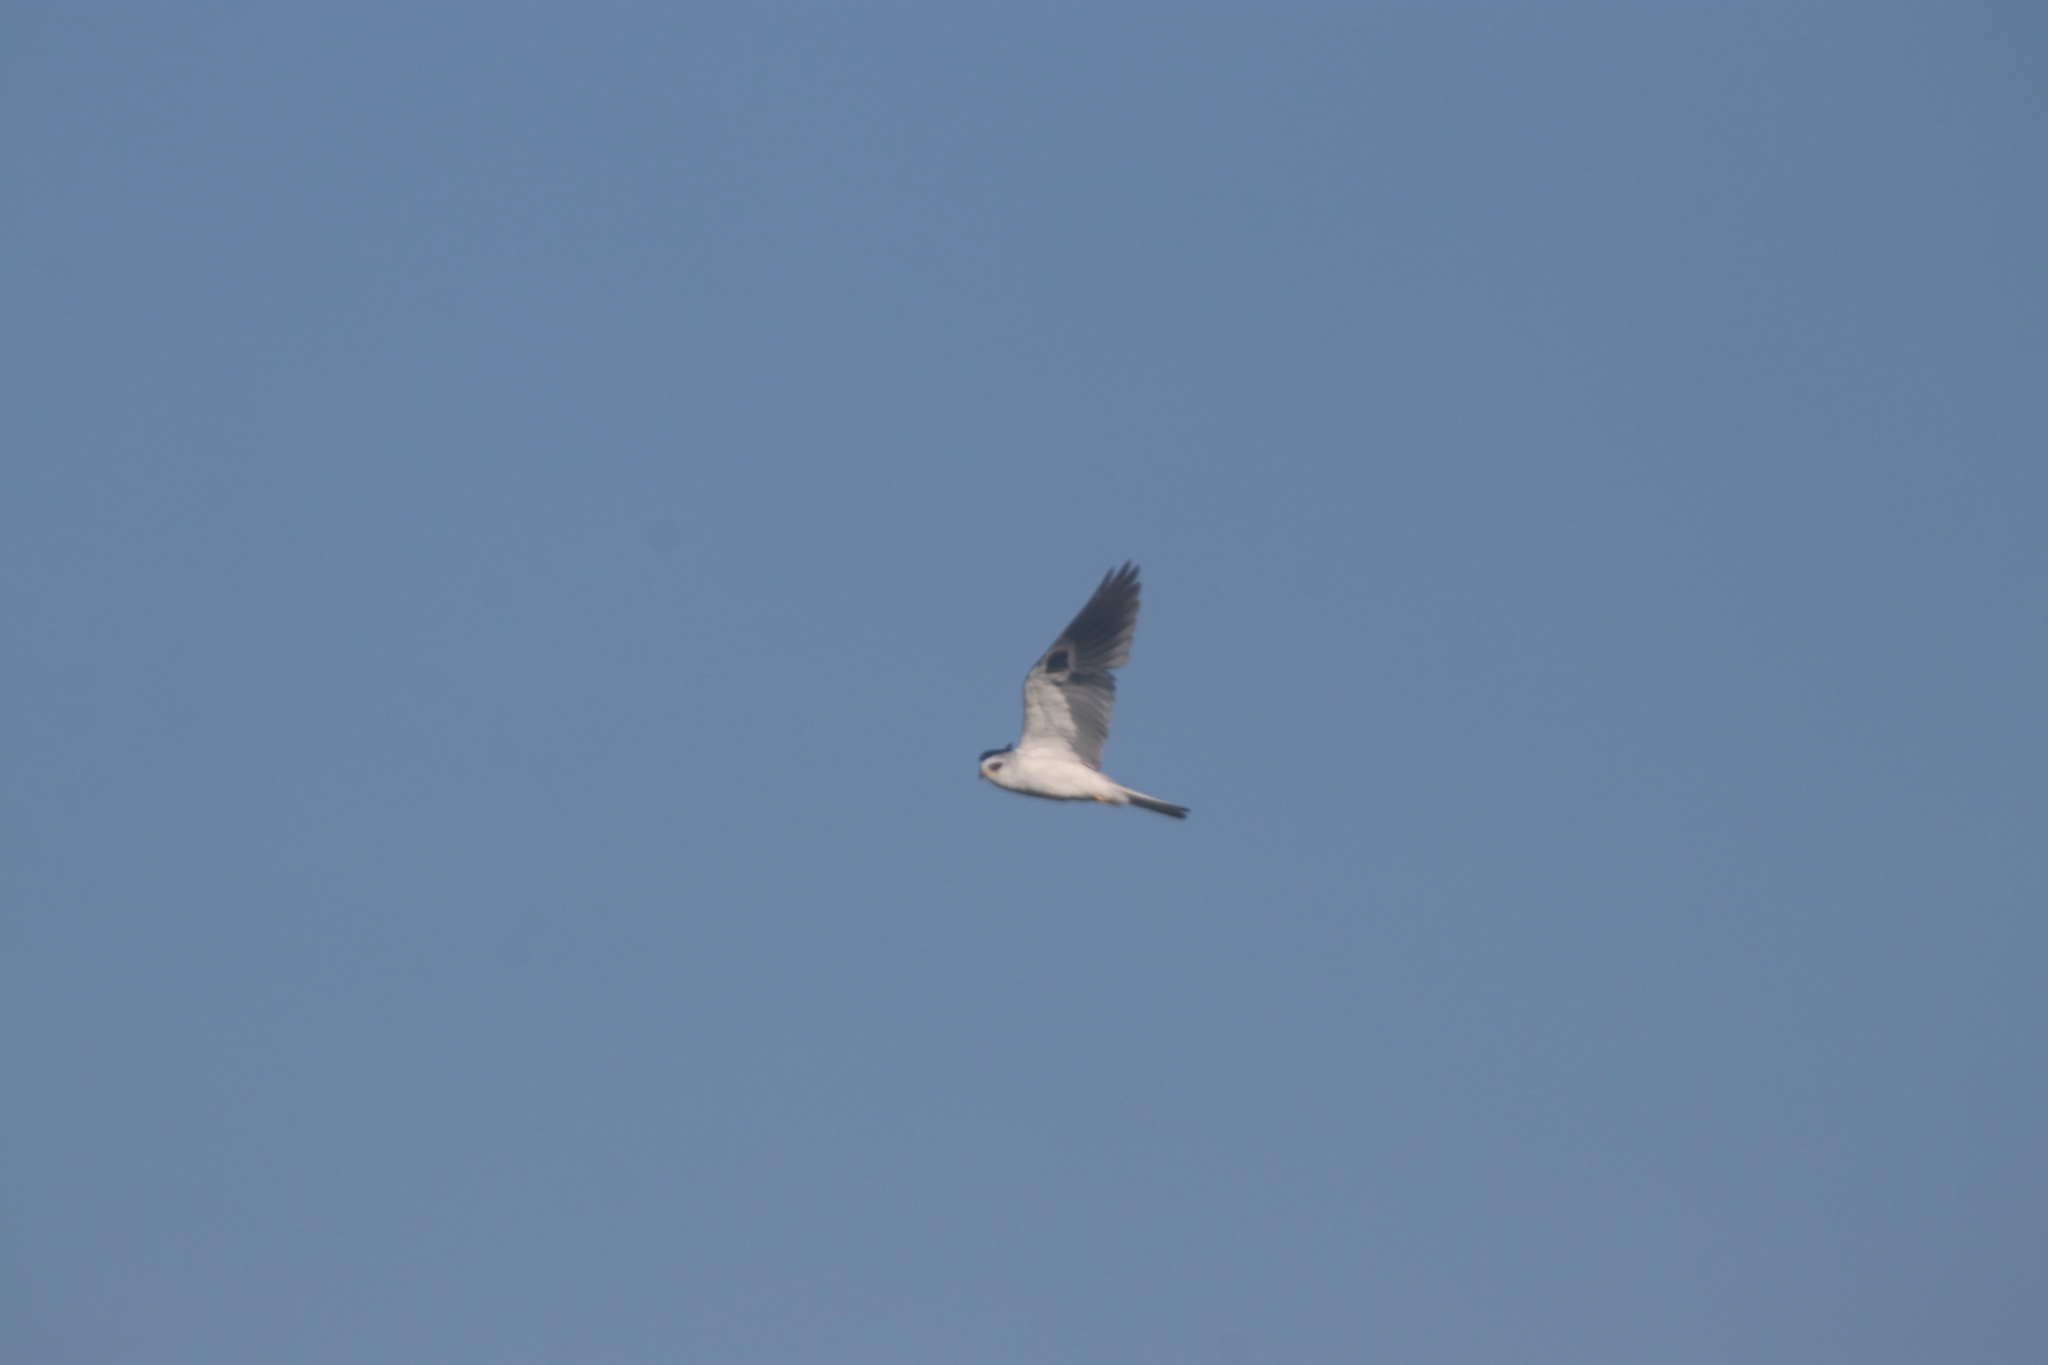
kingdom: Animalia
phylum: Chordata
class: Aves
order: Accipitriformes
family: Accipitridae
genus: Elanus
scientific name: Elanus leucurus
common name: White-tailed kite
